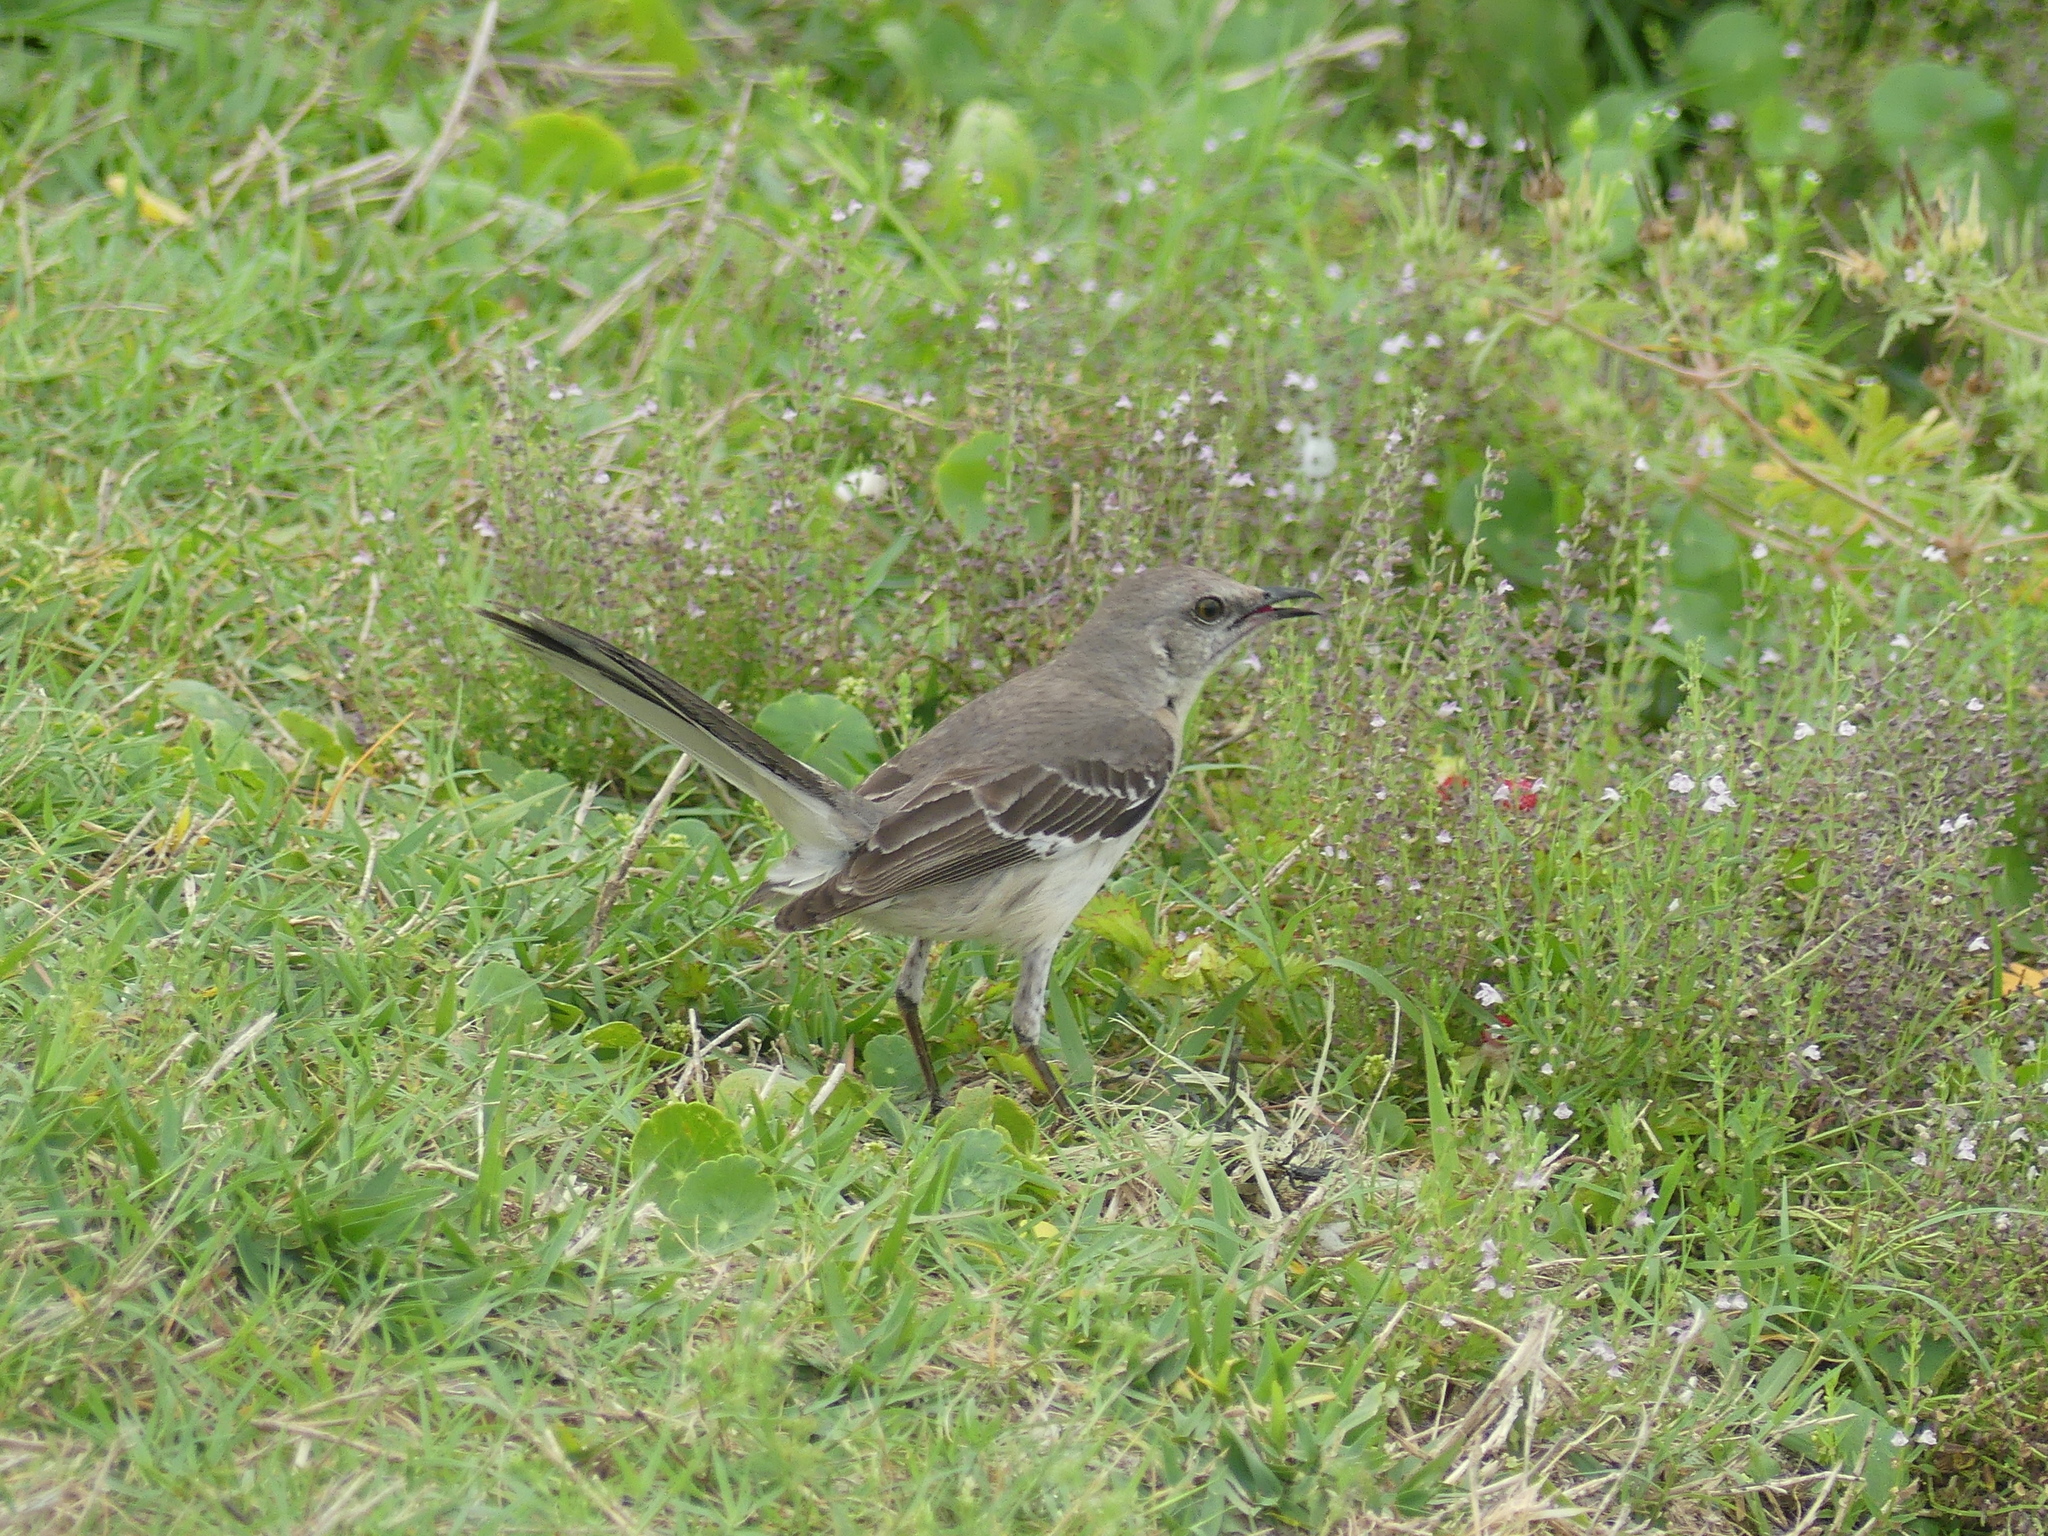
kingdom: Animalia
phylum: Chordata
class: Aves
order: Passeriformes
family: Mimidae
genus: Mimus
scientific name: Mimus polyglottos
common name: Northern mockingbird
